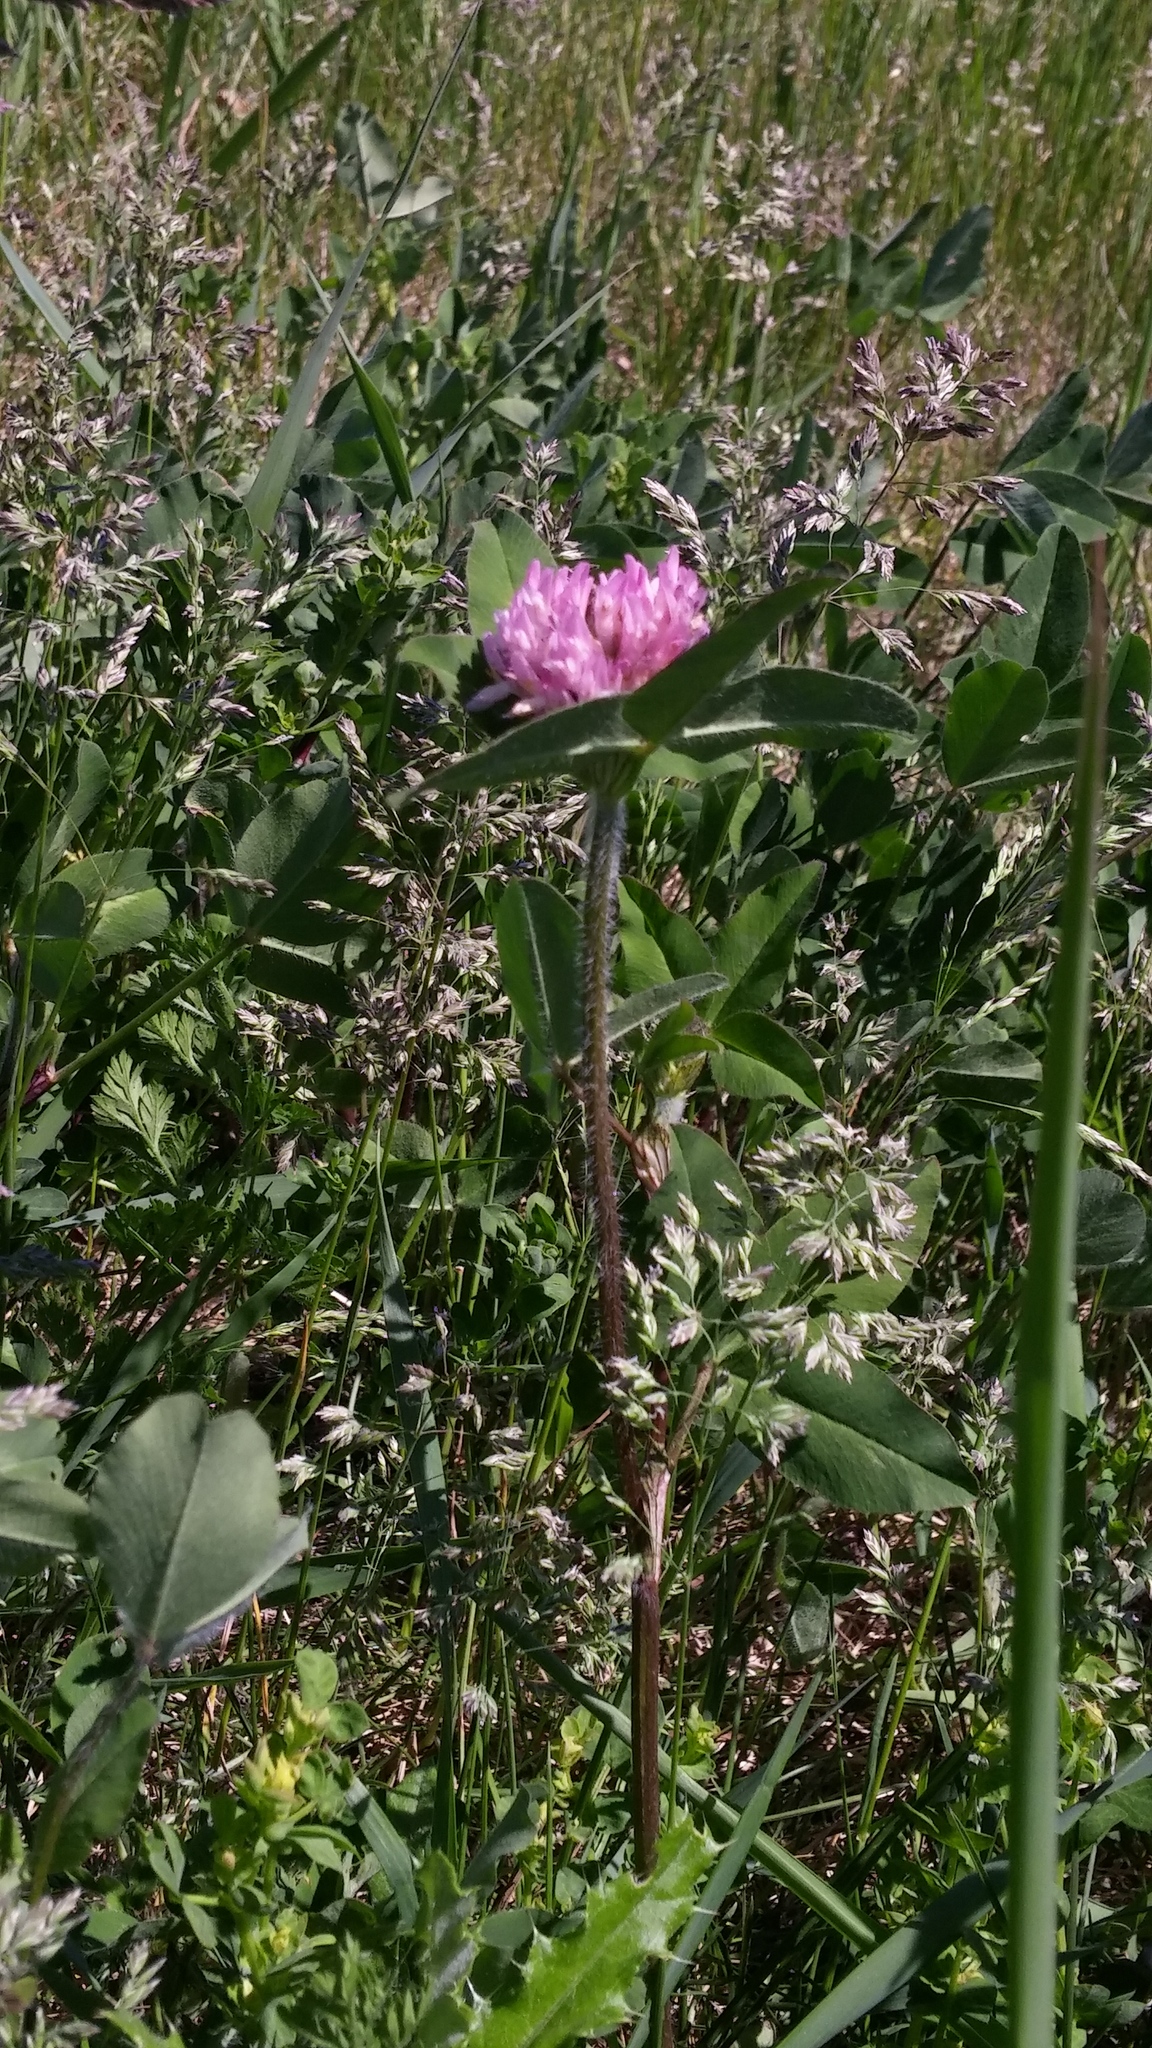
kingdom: Plantae
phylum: Tracheophyta
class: Magnoliopsida
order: Fabales
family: Fabaceae
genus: Trifolium
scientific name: Trifolium pratense
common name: Red clover
